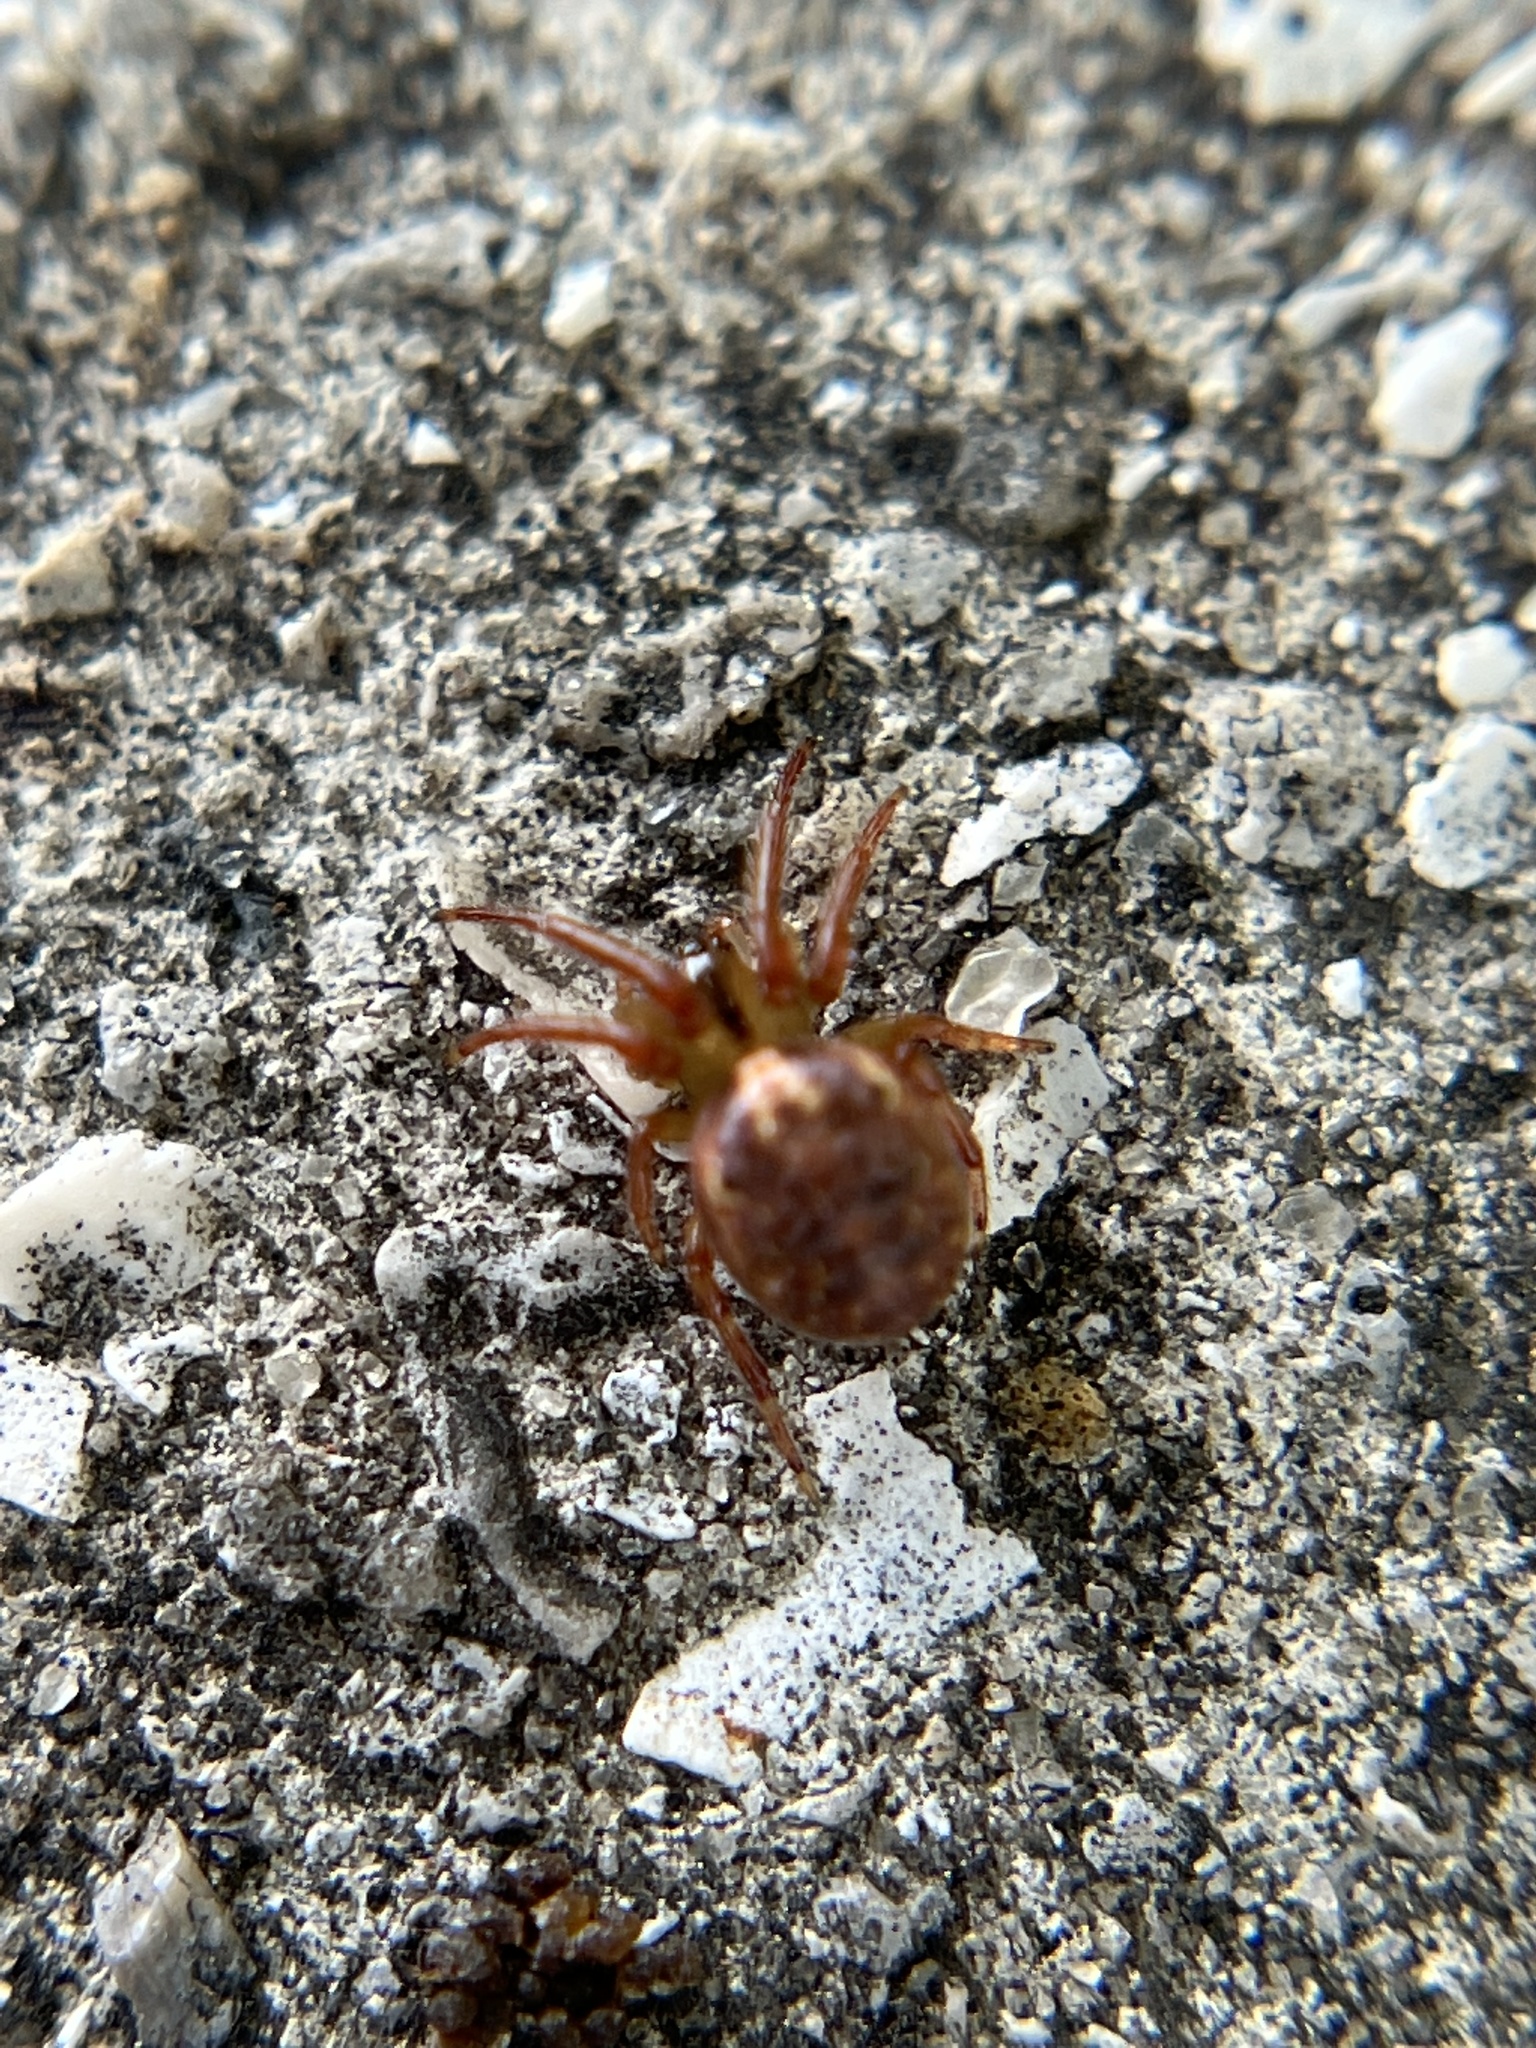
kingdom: Animalia
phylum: Arthropoda
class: Arachnida
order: Araneae
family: Araneidae
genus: Metazygia
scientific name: Metazygia zilloides
